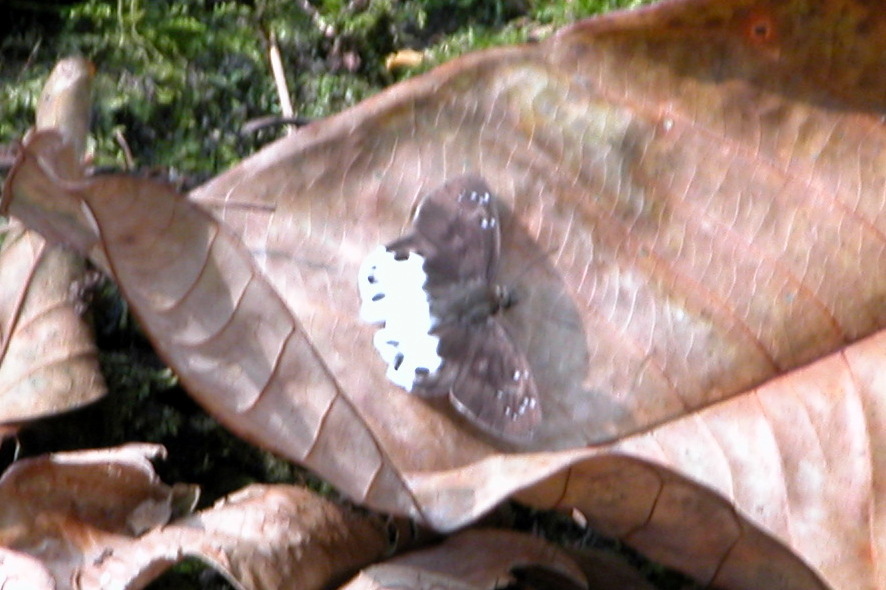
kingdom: Animalia
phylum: Arthropoda
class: Insecta
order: Lepidoptera
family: Hesperiidae
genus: Tagiades
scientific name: Tagiades litigiosa
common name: Water snow flat
